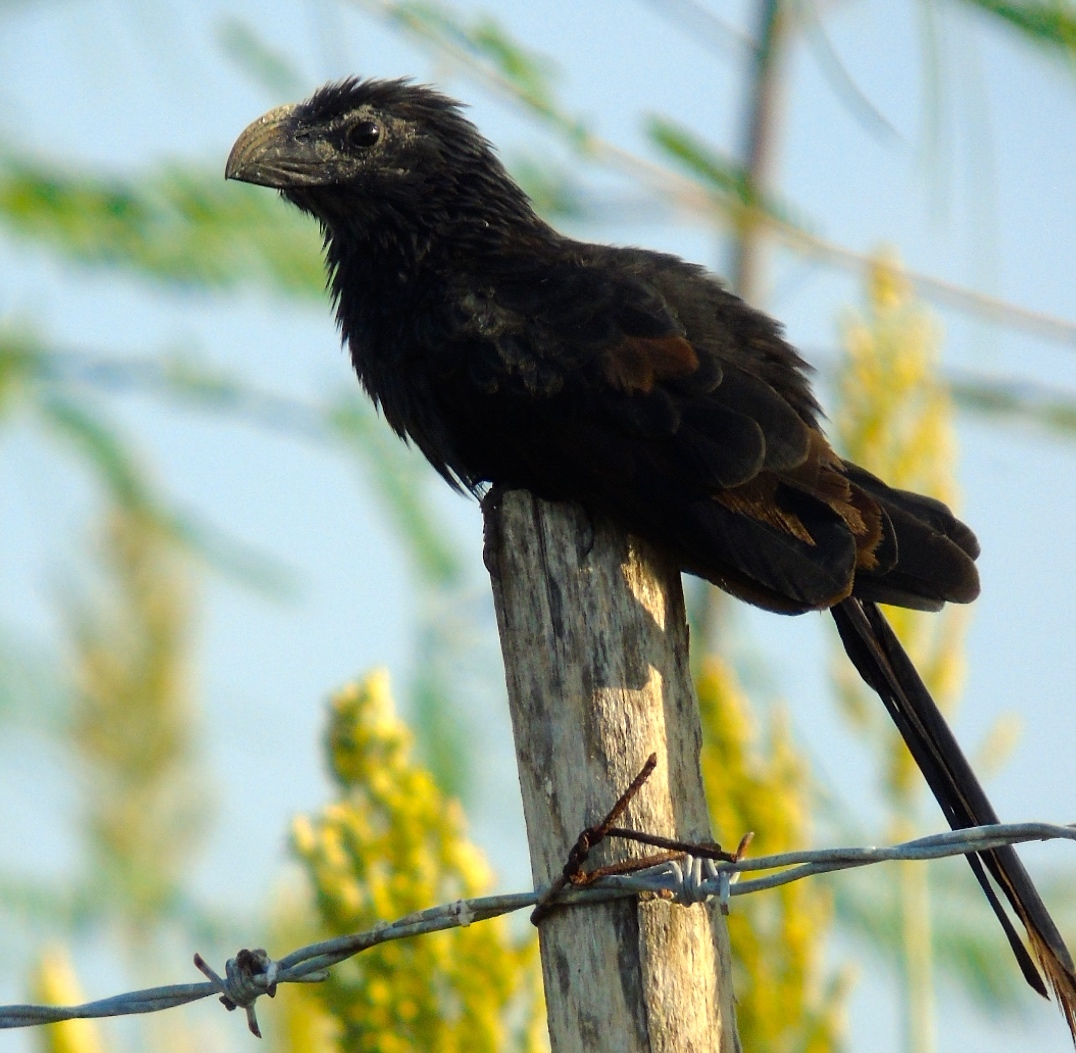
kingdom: Animalia
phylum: Chordata
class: Aves
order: Cuculiformes
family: Cuculidae
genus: Crotophaga
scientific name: Crotophaga sulcirostris
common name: Groove-billed ani
